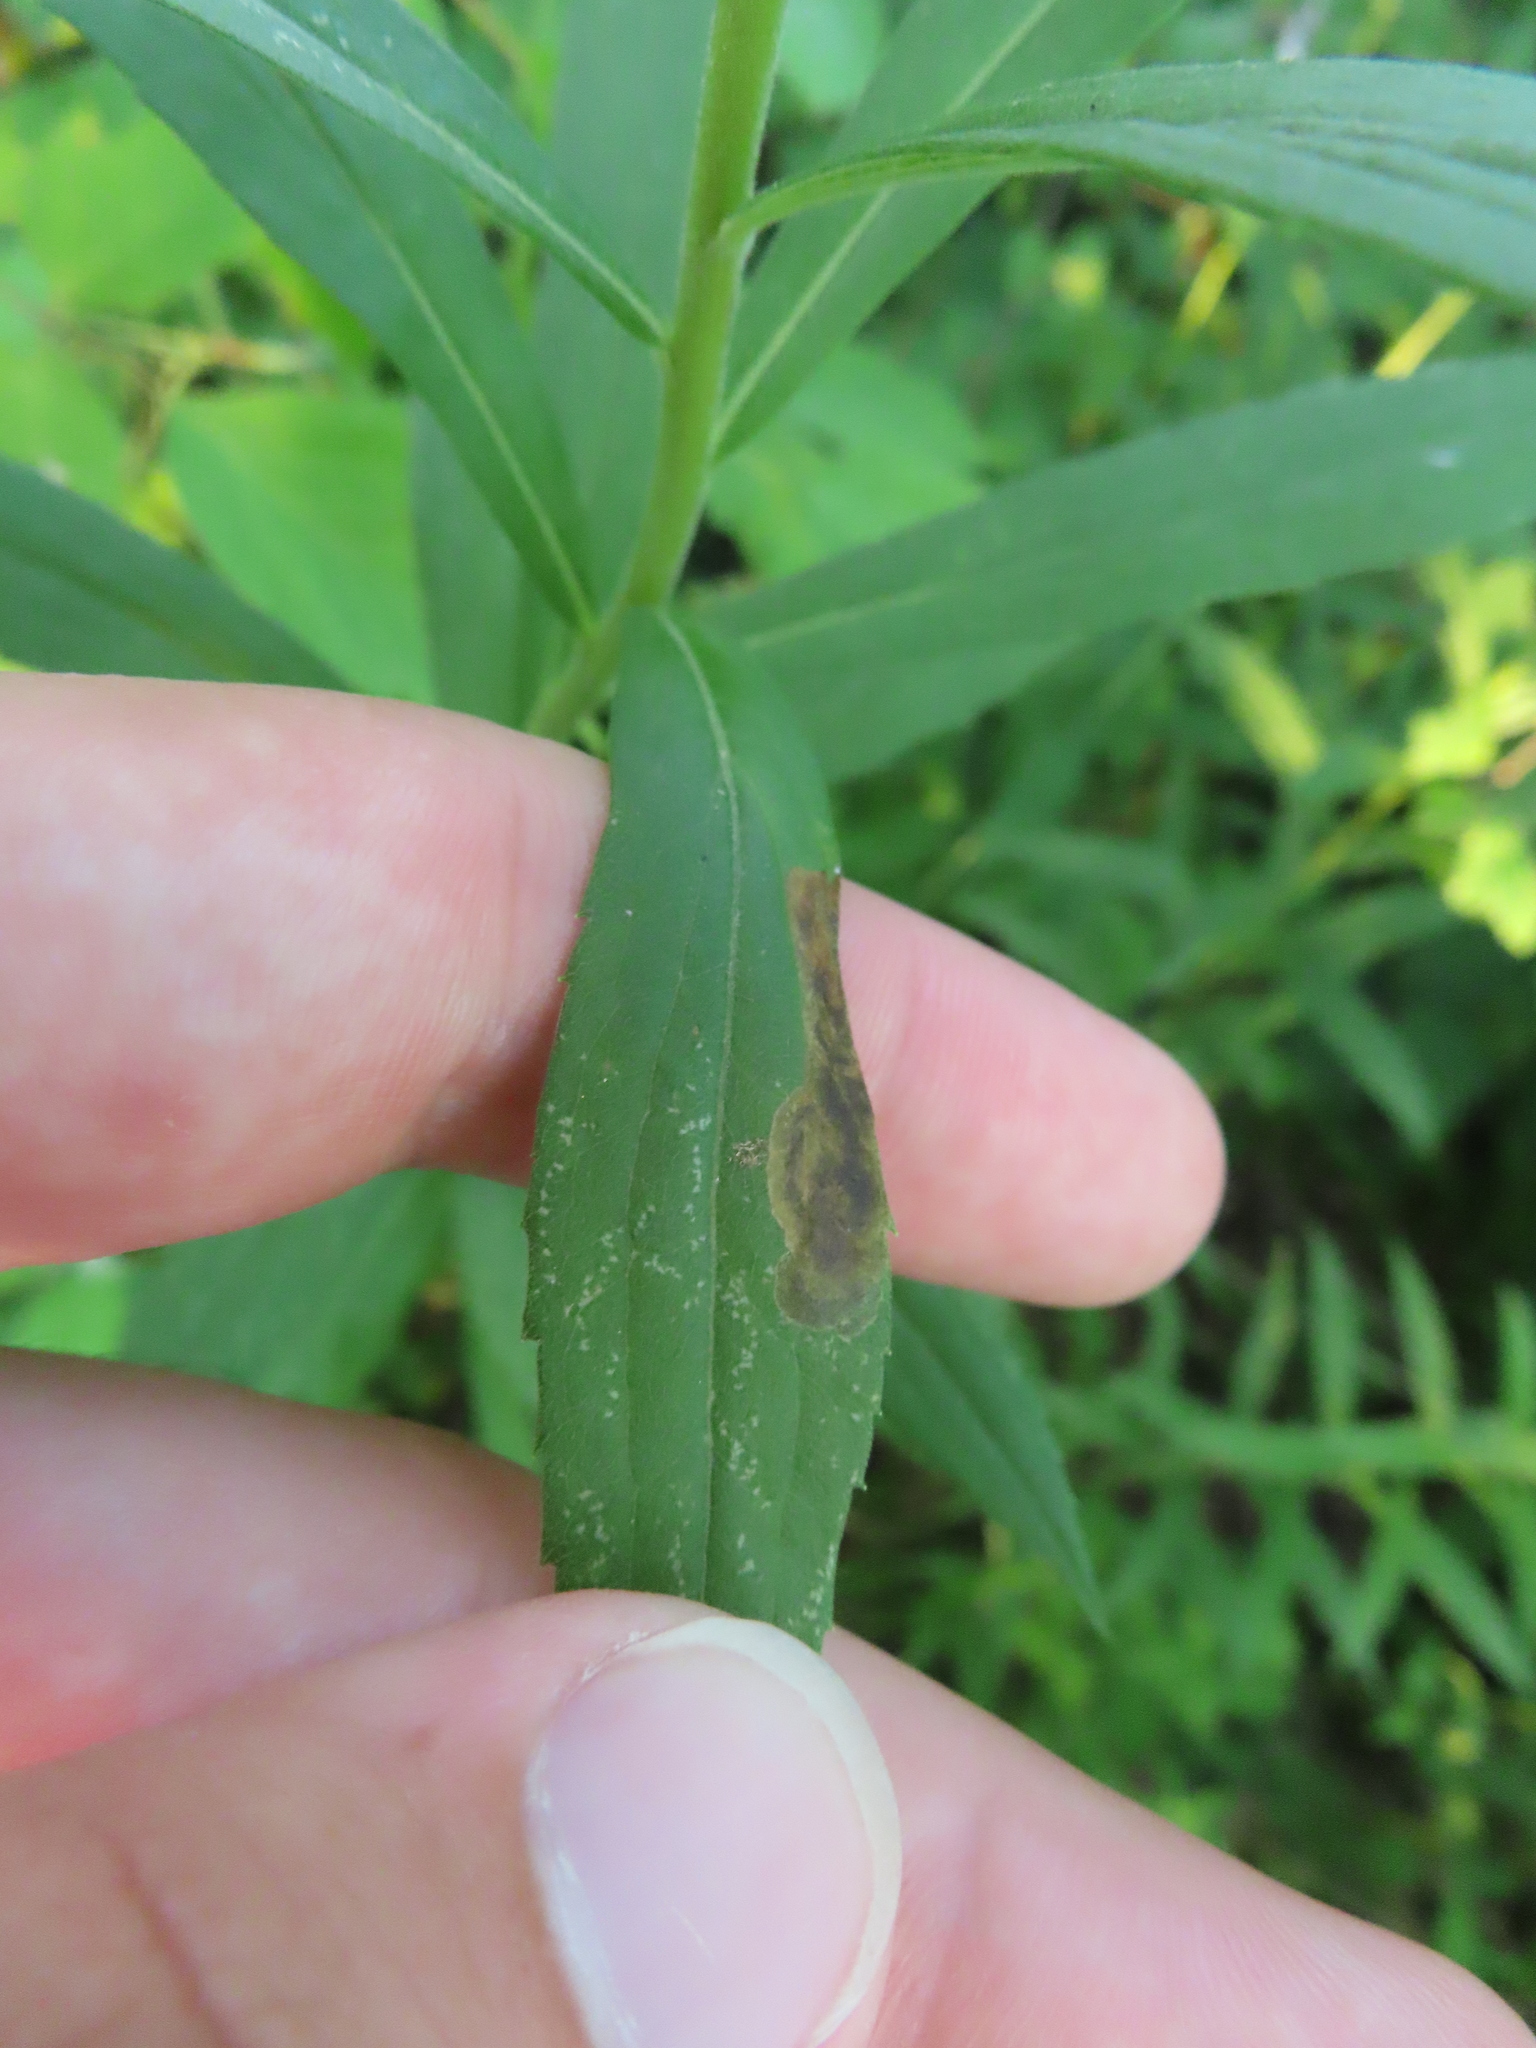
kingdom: Animalia
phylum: Arthropoda
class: Insecta
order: Diptera
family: Agromyzidae
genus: Nemorimyza
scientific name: Nemorimyza posticata
